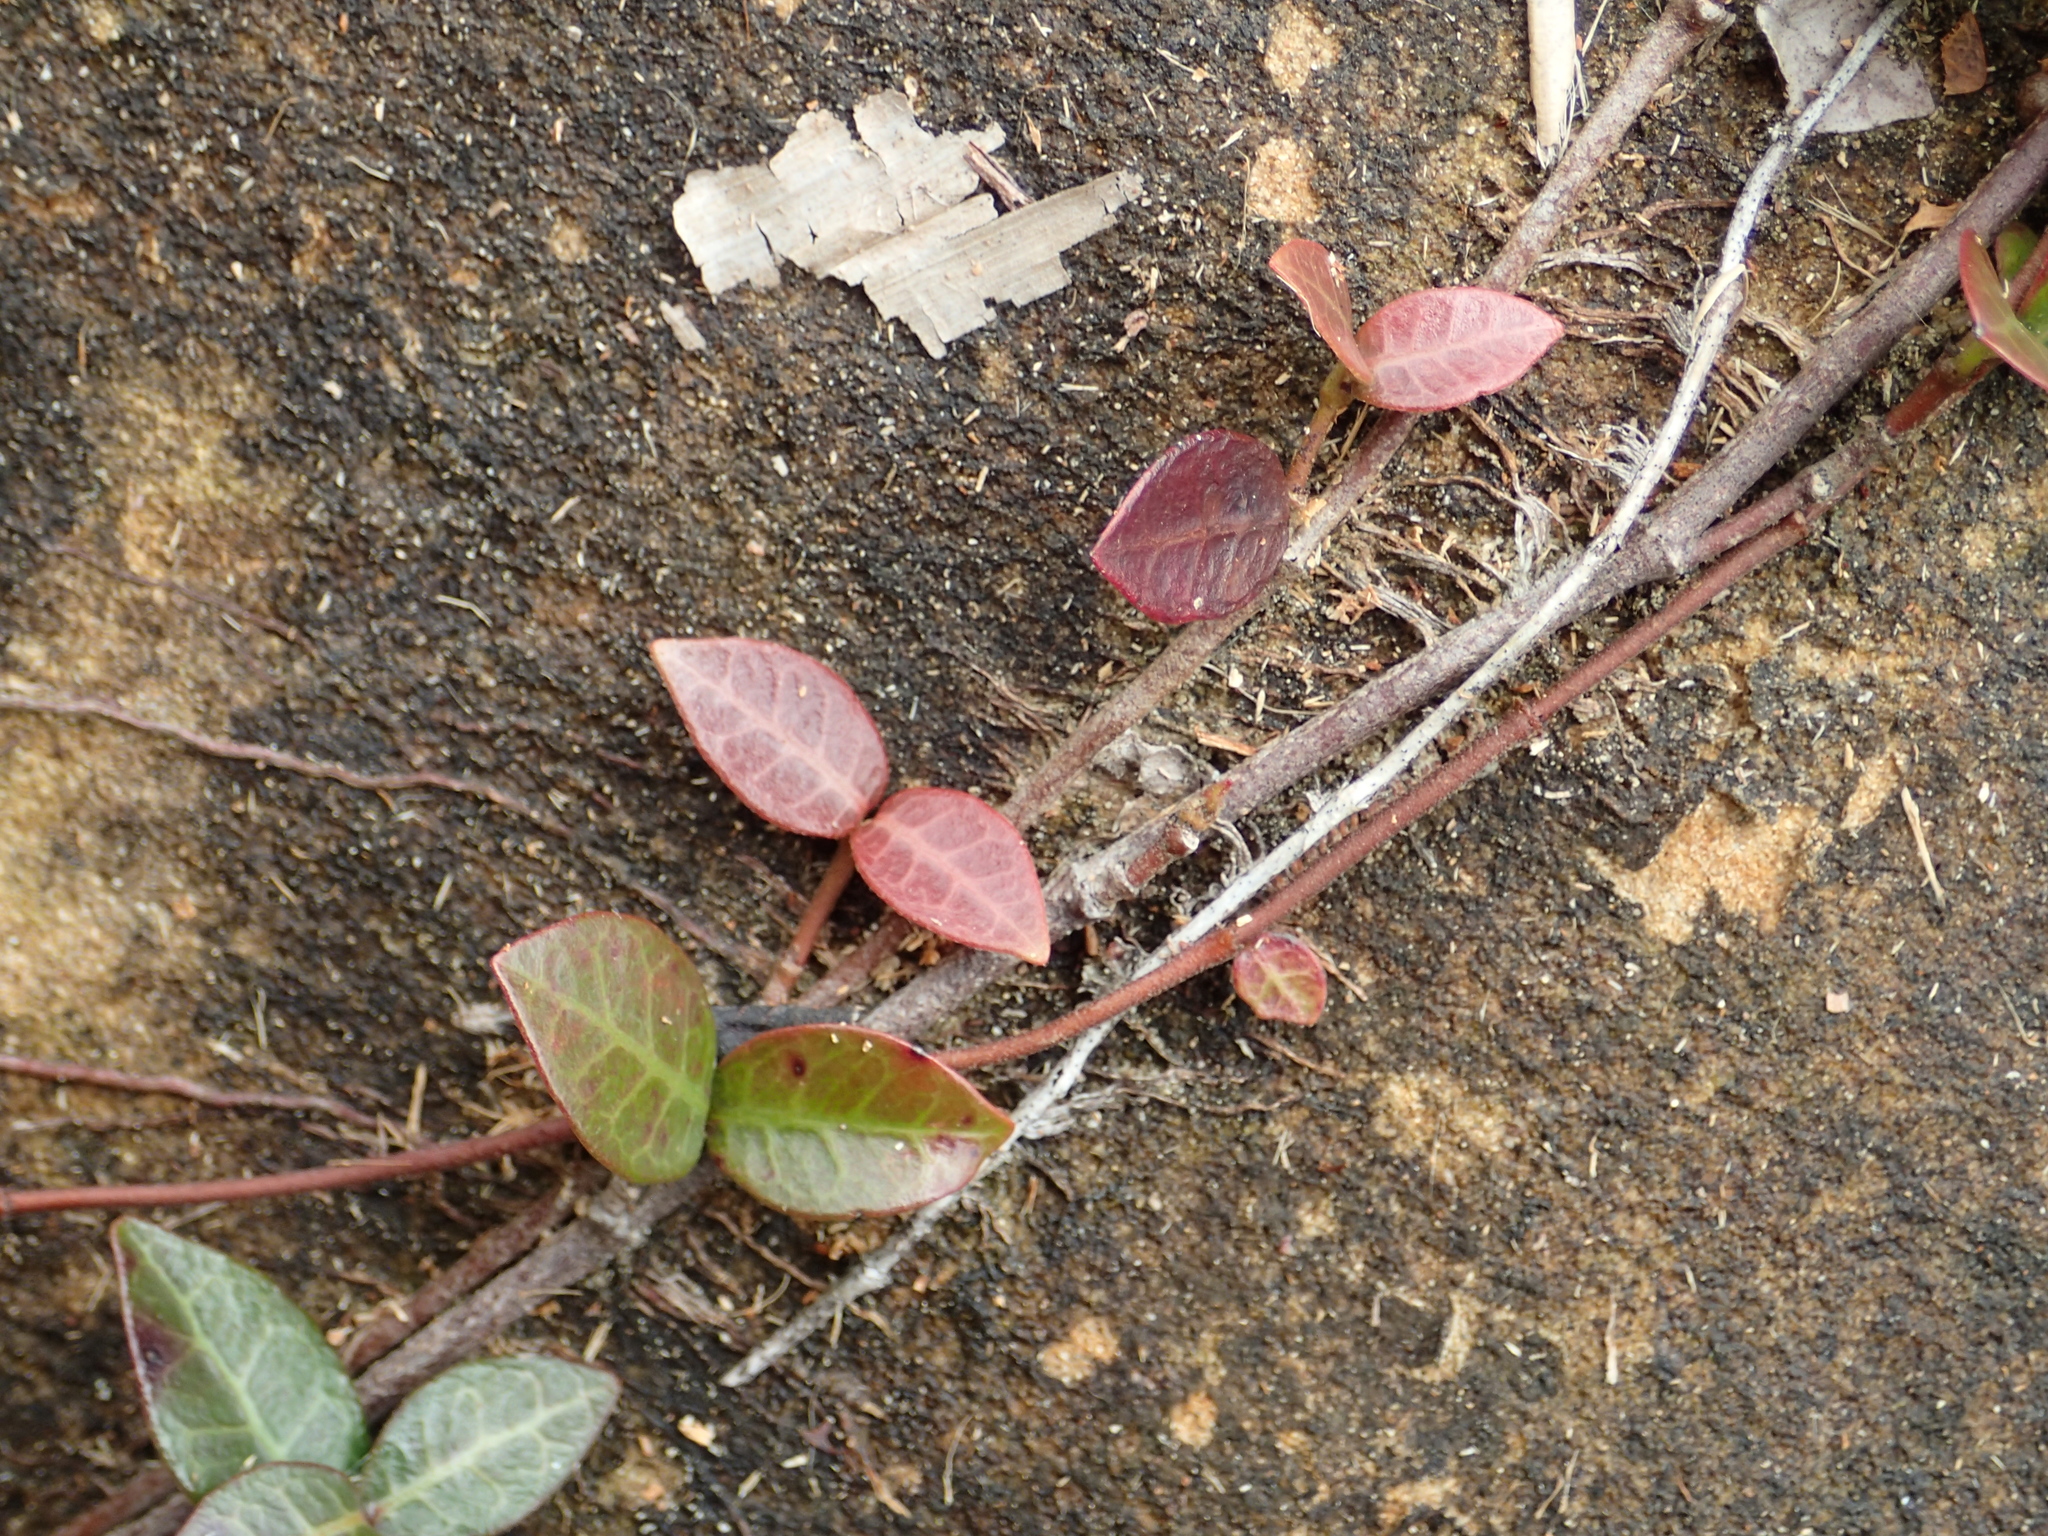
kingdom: Plantae
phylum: Tracheophyta
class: Magnoliopsida
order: Gentianales
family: Apocynaceae
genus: Trachelospermum
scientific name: Trachelospermum jasminoides
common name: Confederate jasmine
